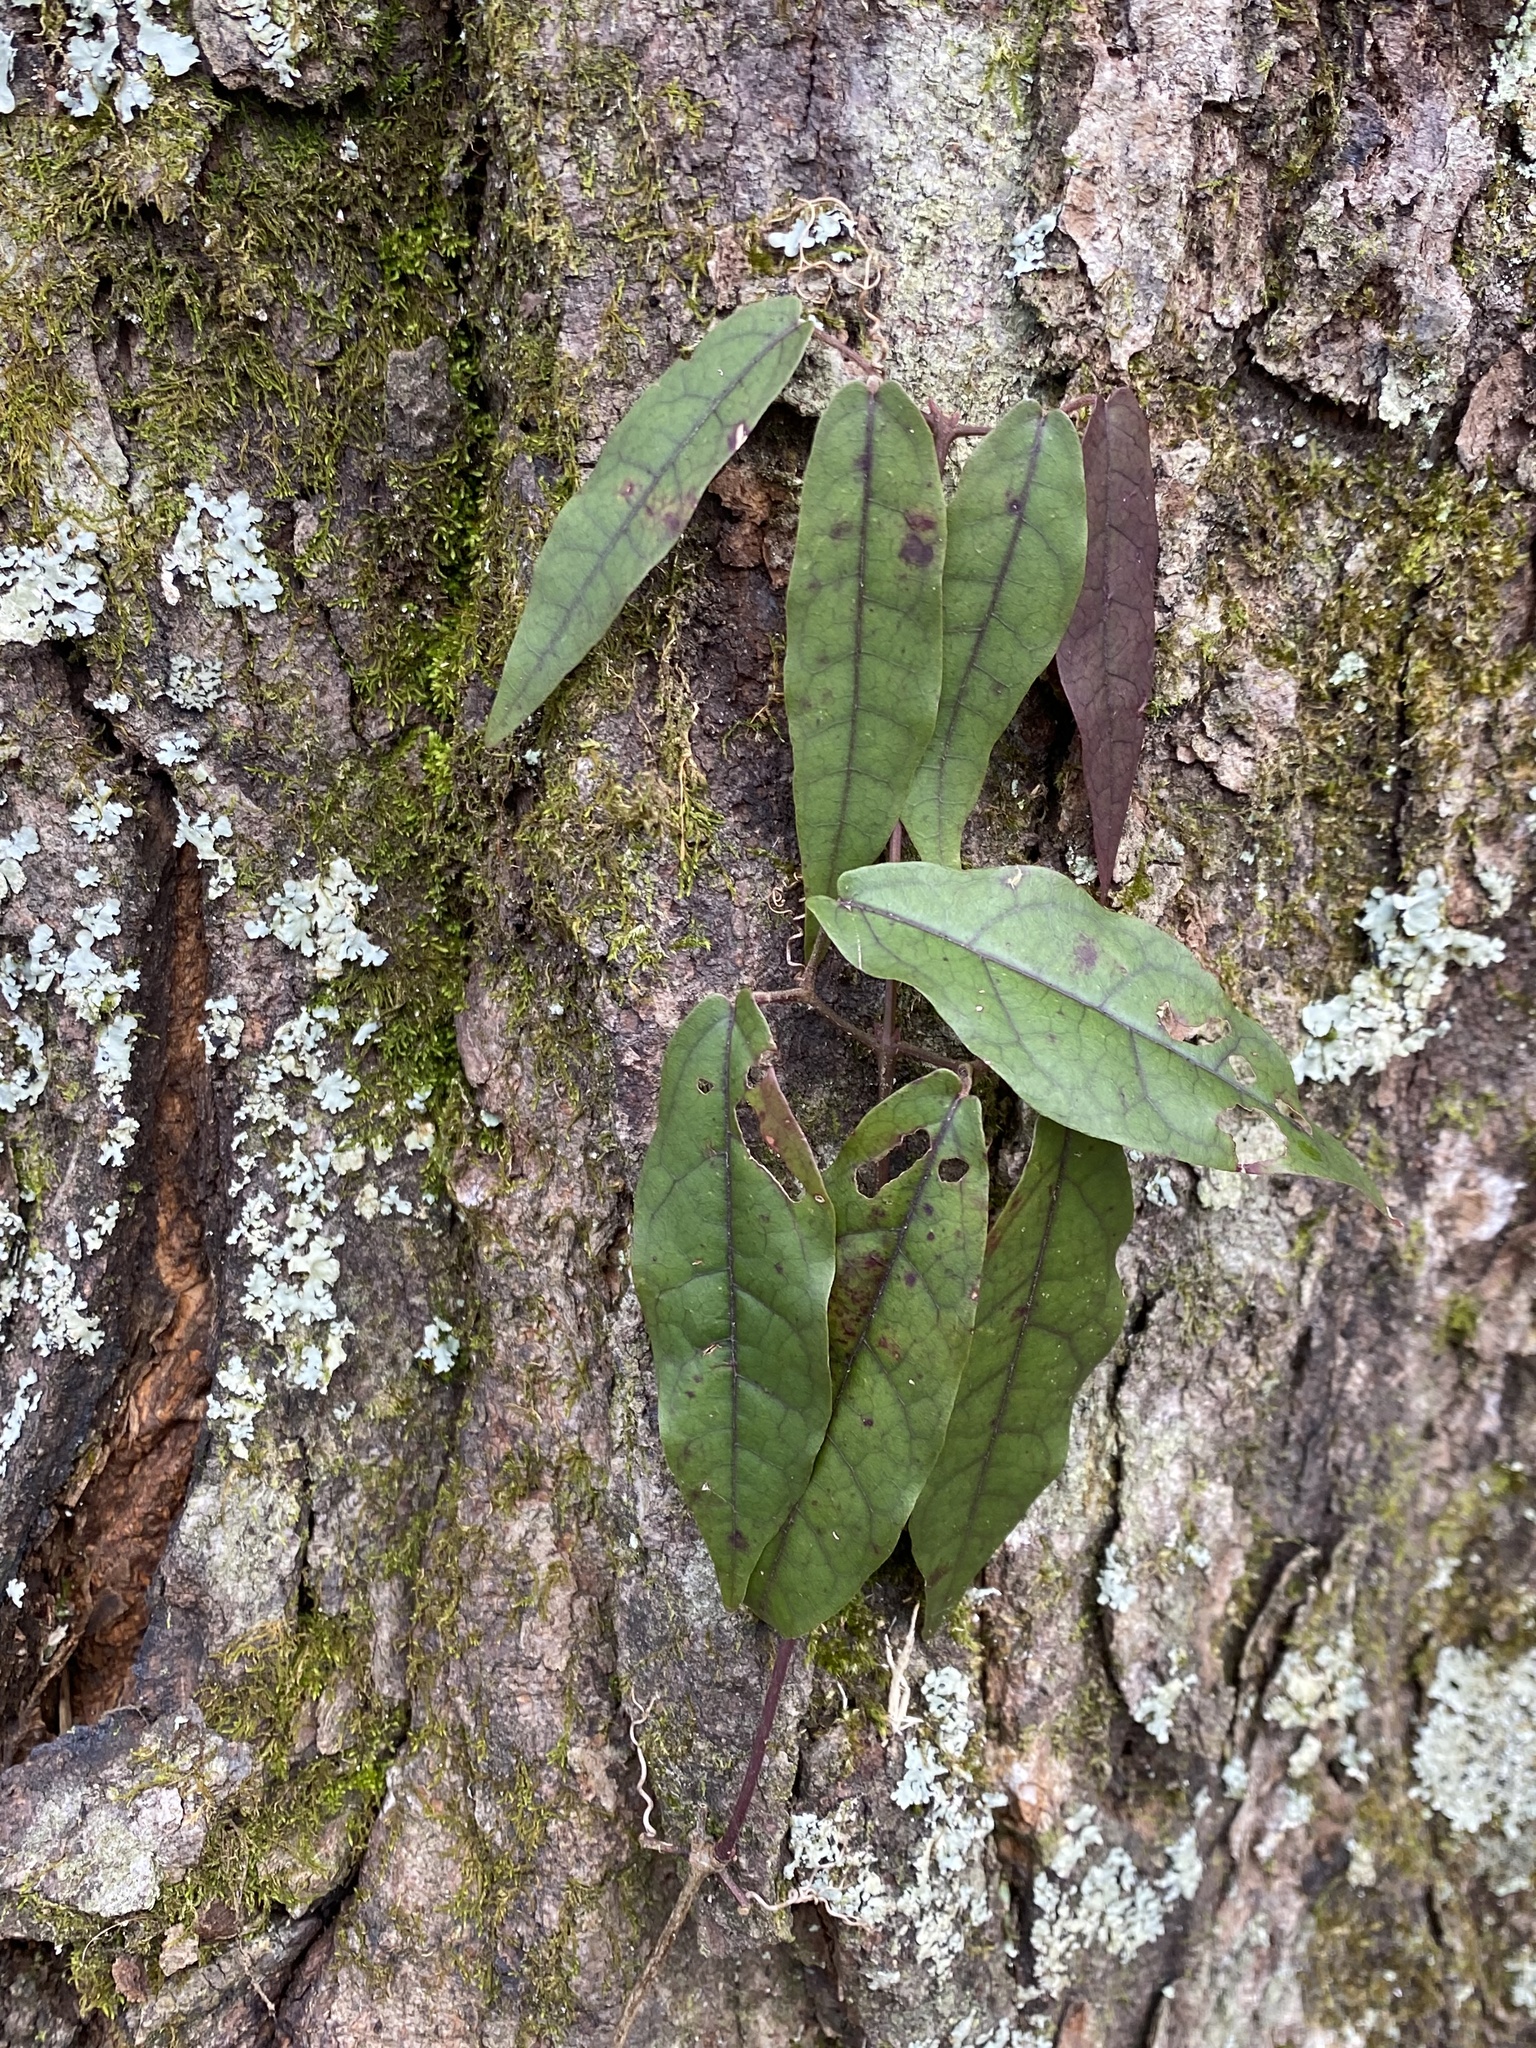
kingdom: Plantae
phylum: Tracheophyta
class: Magnoliopsida
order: Lamiales
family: Bignoniaceae
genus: Bignonia
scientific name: Bignonia capreolata
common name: Crossvine
